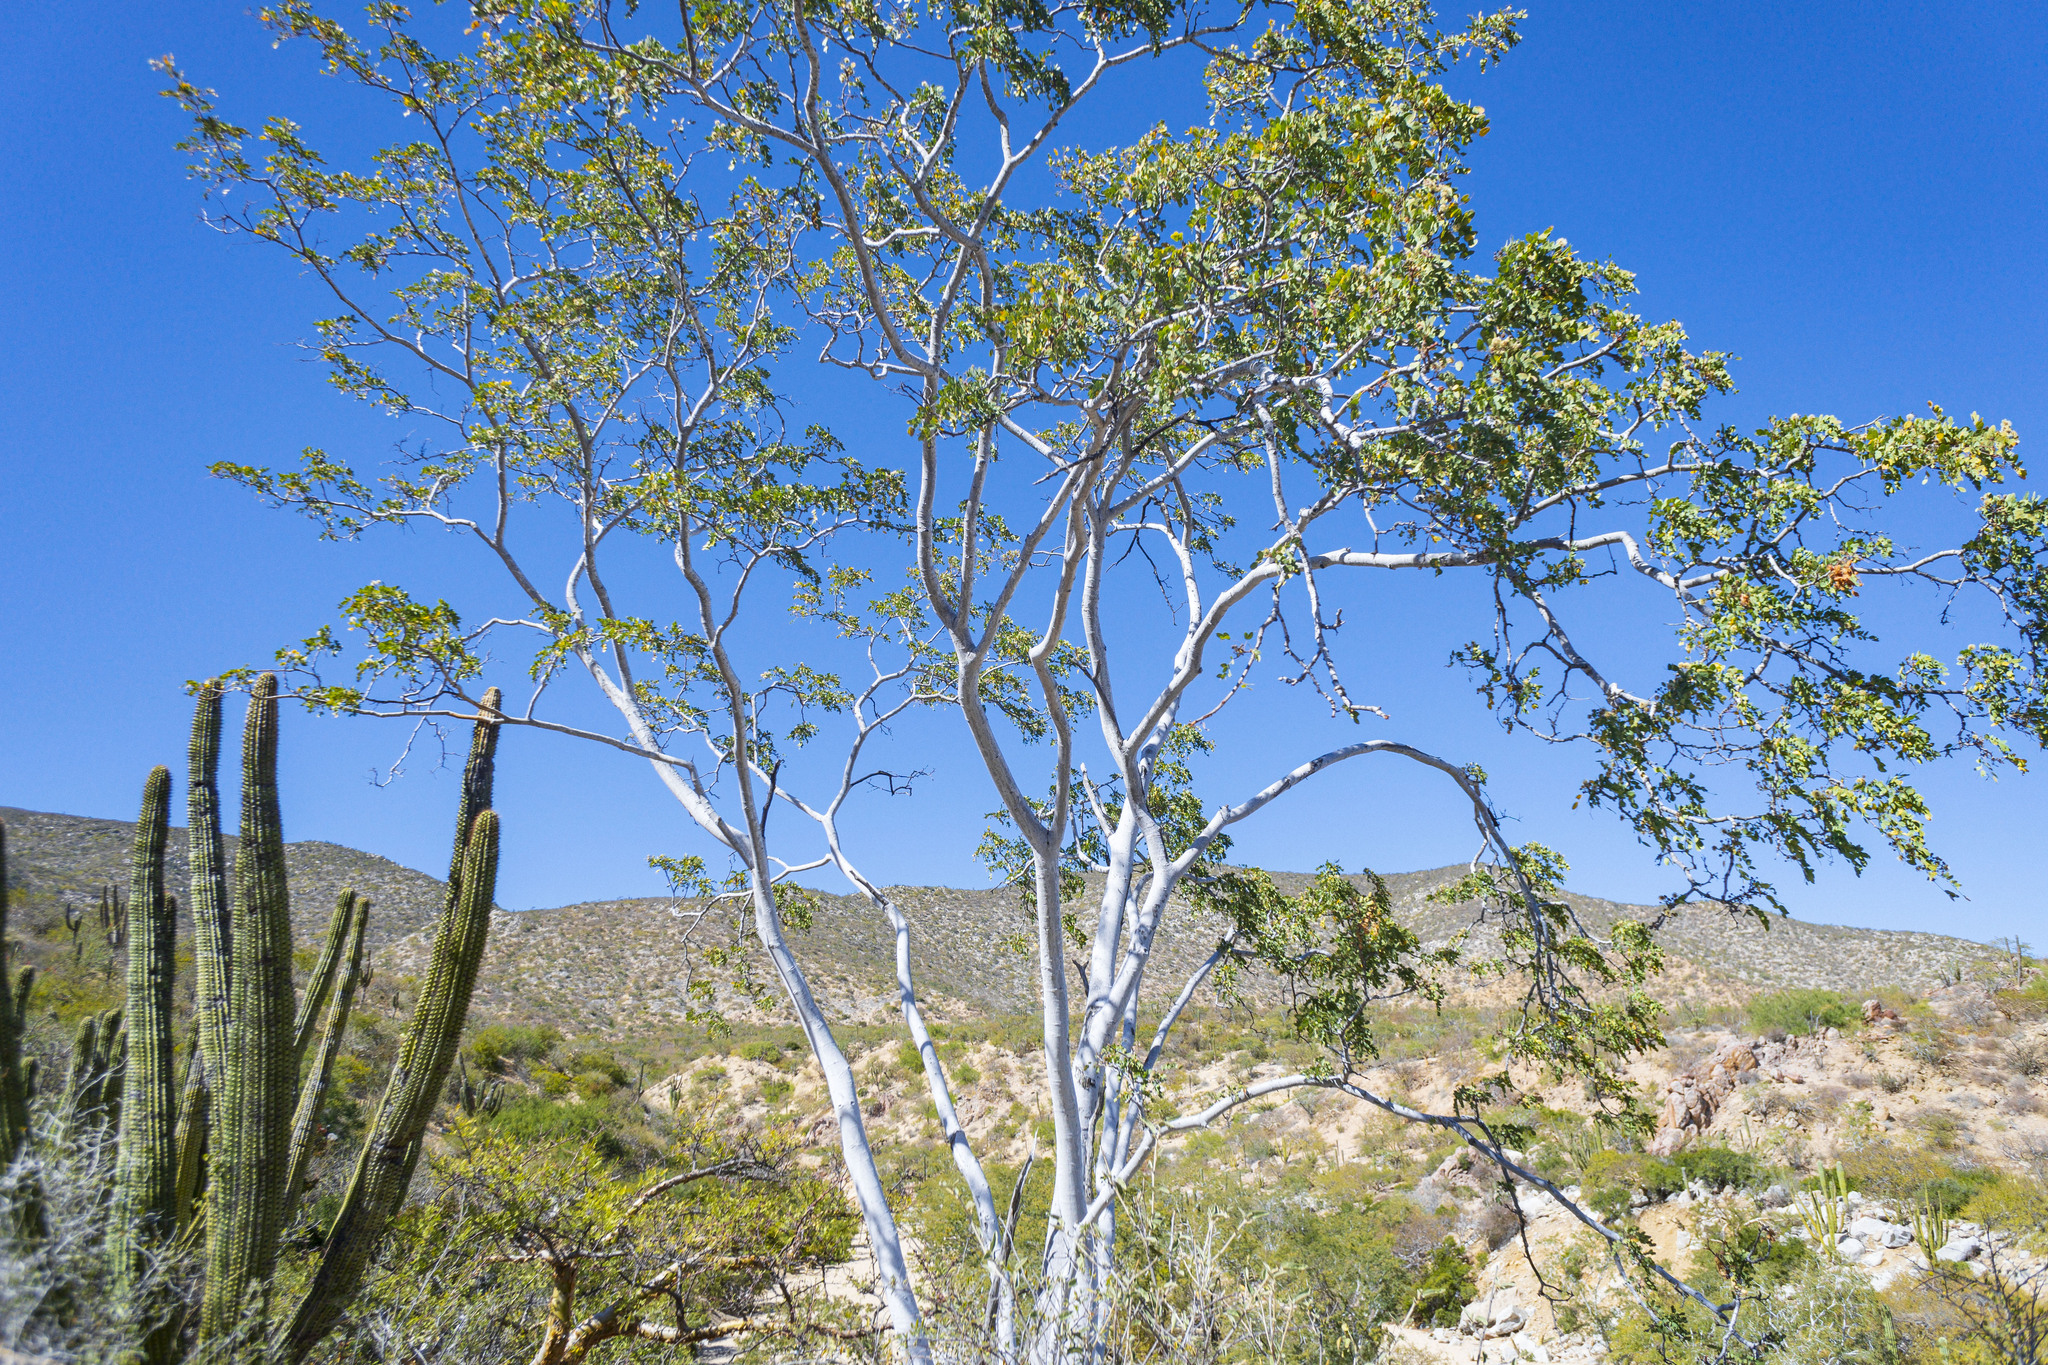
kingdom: Plantae
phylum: Tracheophyta
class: Magnoliopsida
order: Fabales
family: Fabaceae
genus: Lysiloma
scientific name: Lysiloma candidum
